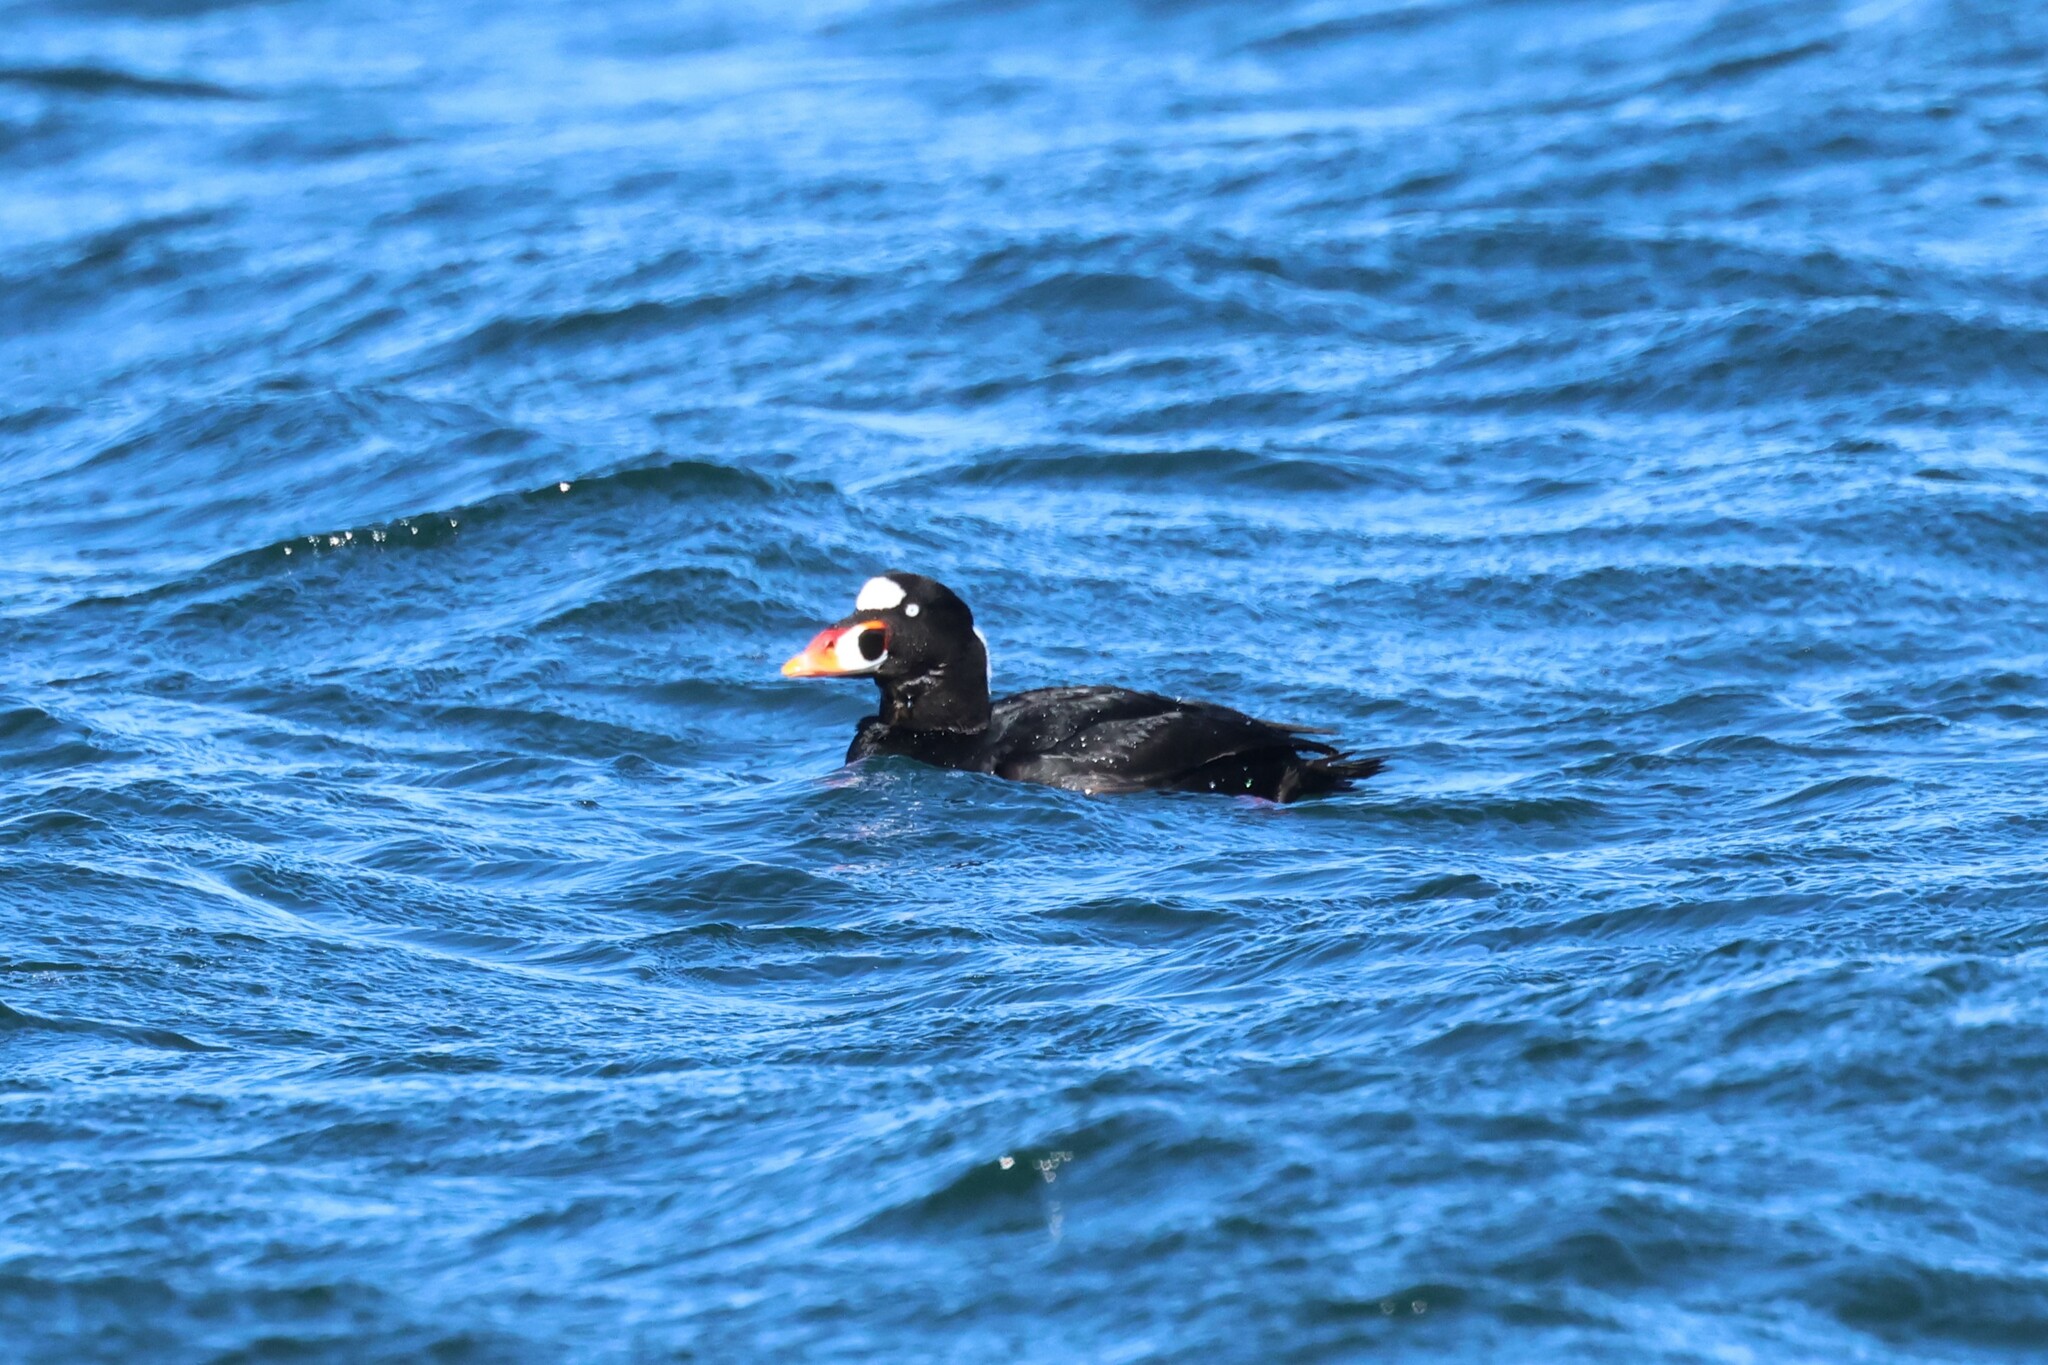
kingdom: Animalia
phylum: Chordata
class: Aves
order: Anseriformes
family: Anatidae
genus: Melanitta
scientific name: Melanitta perspicillata
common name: Surf scoter
